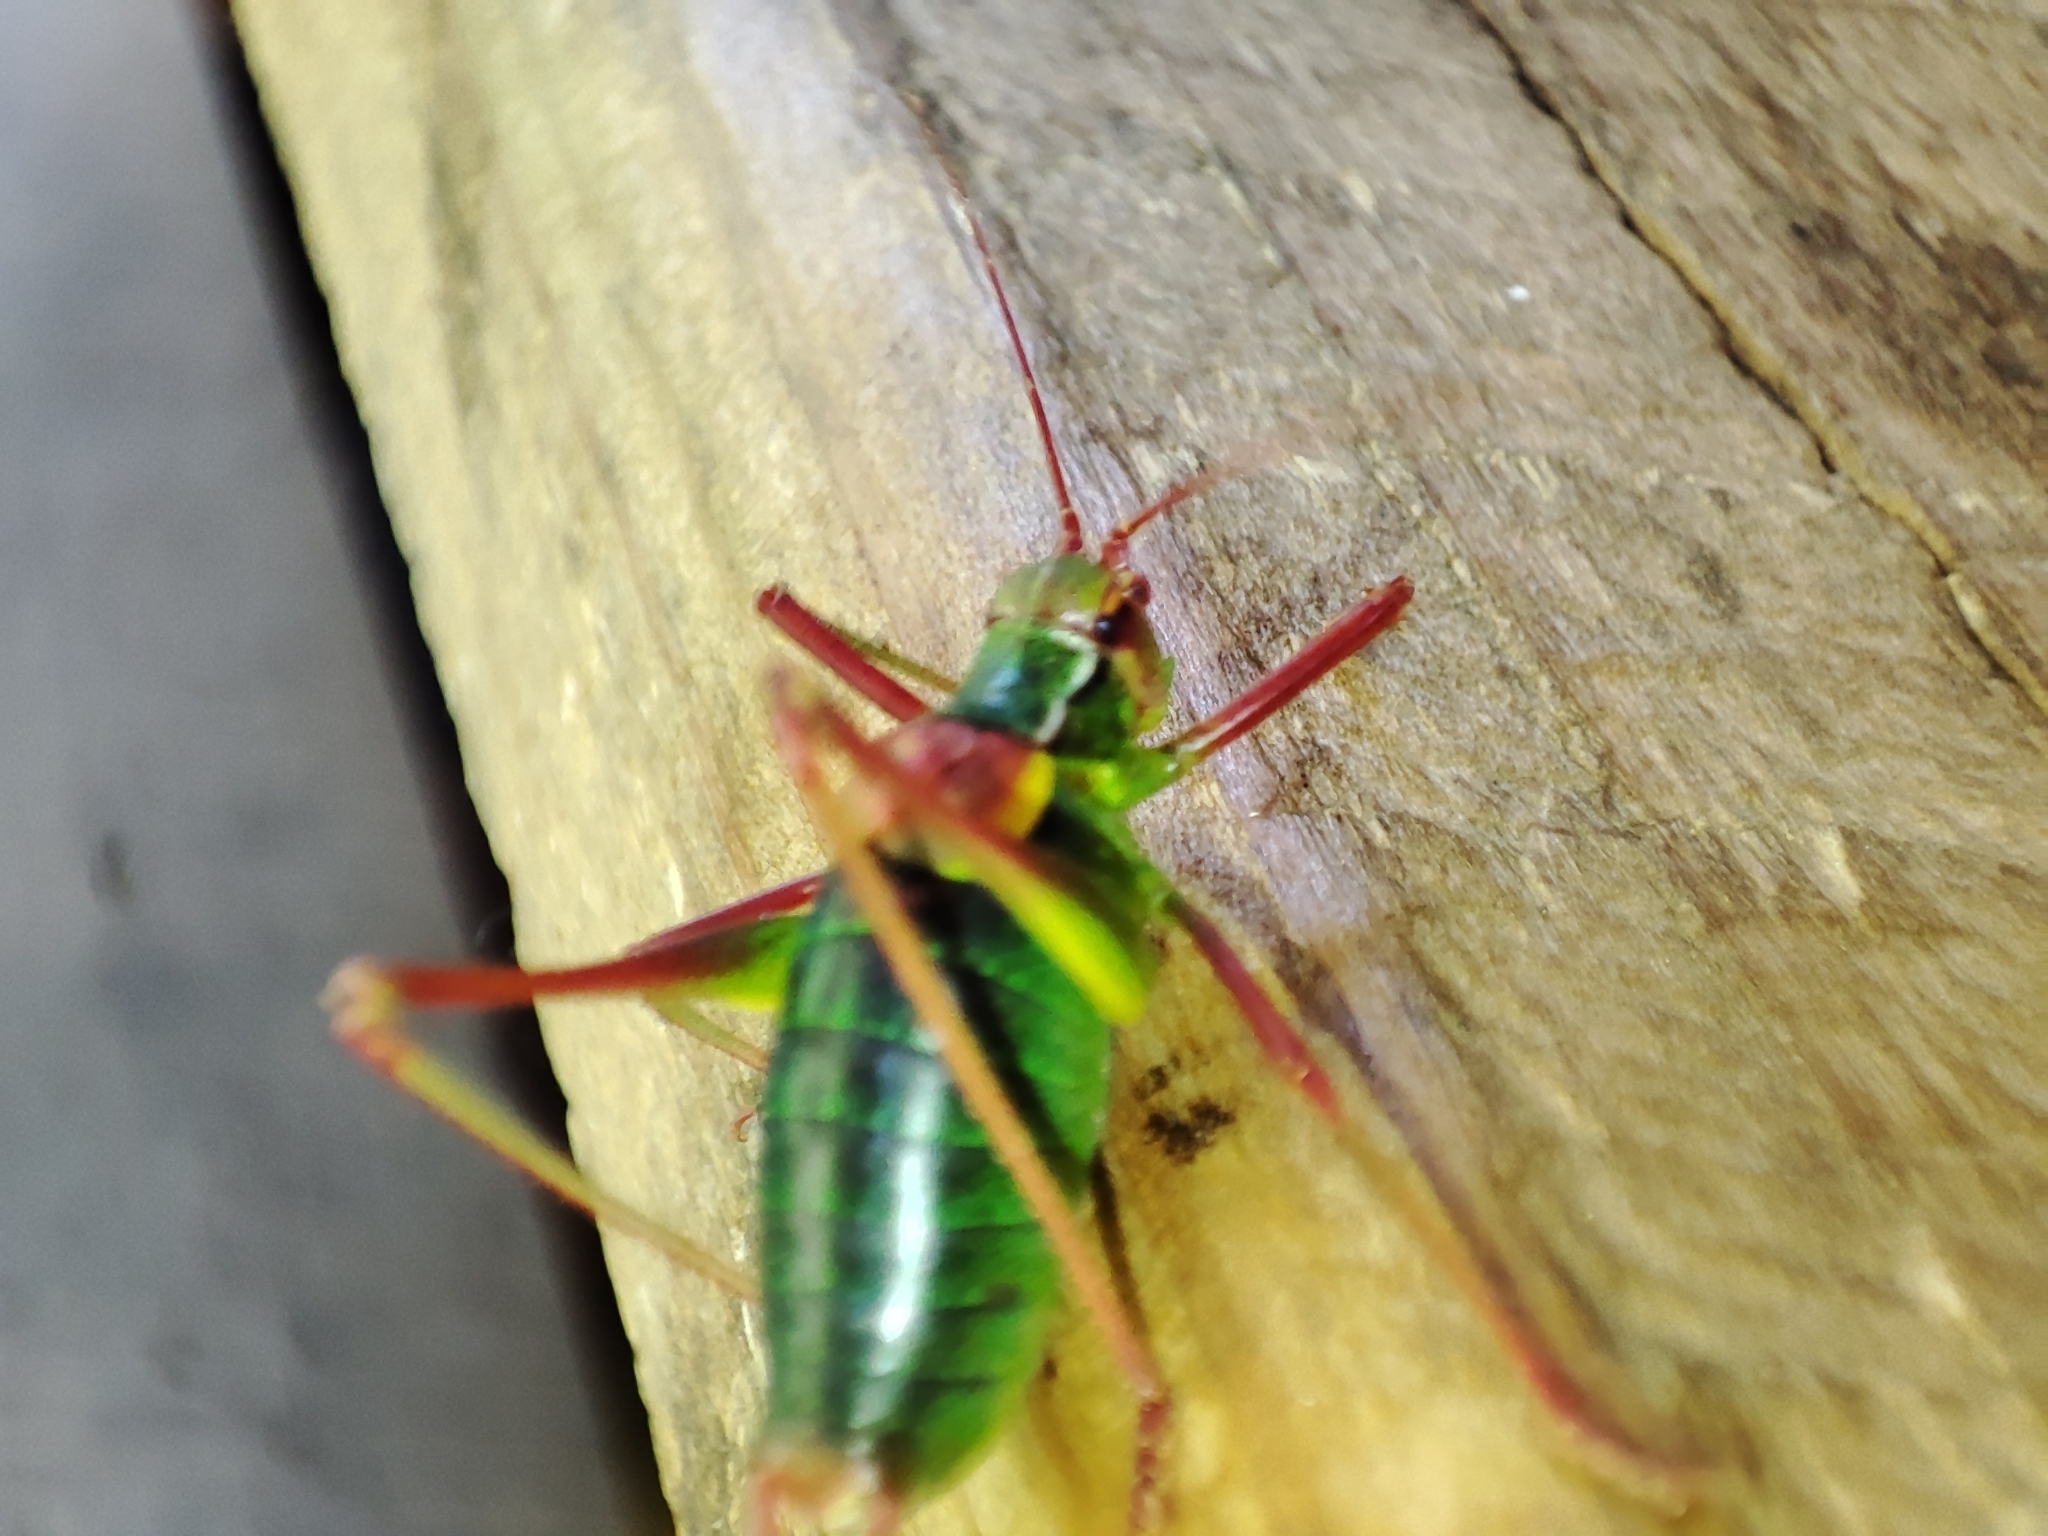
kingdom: Animalia
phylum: Arthropoda
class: Insecta
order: Orthoptera
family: Tettigoniidae
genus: Barbitistes
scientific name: Barbitistes constrictus
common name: Eastern saw-tailed bush cricket
